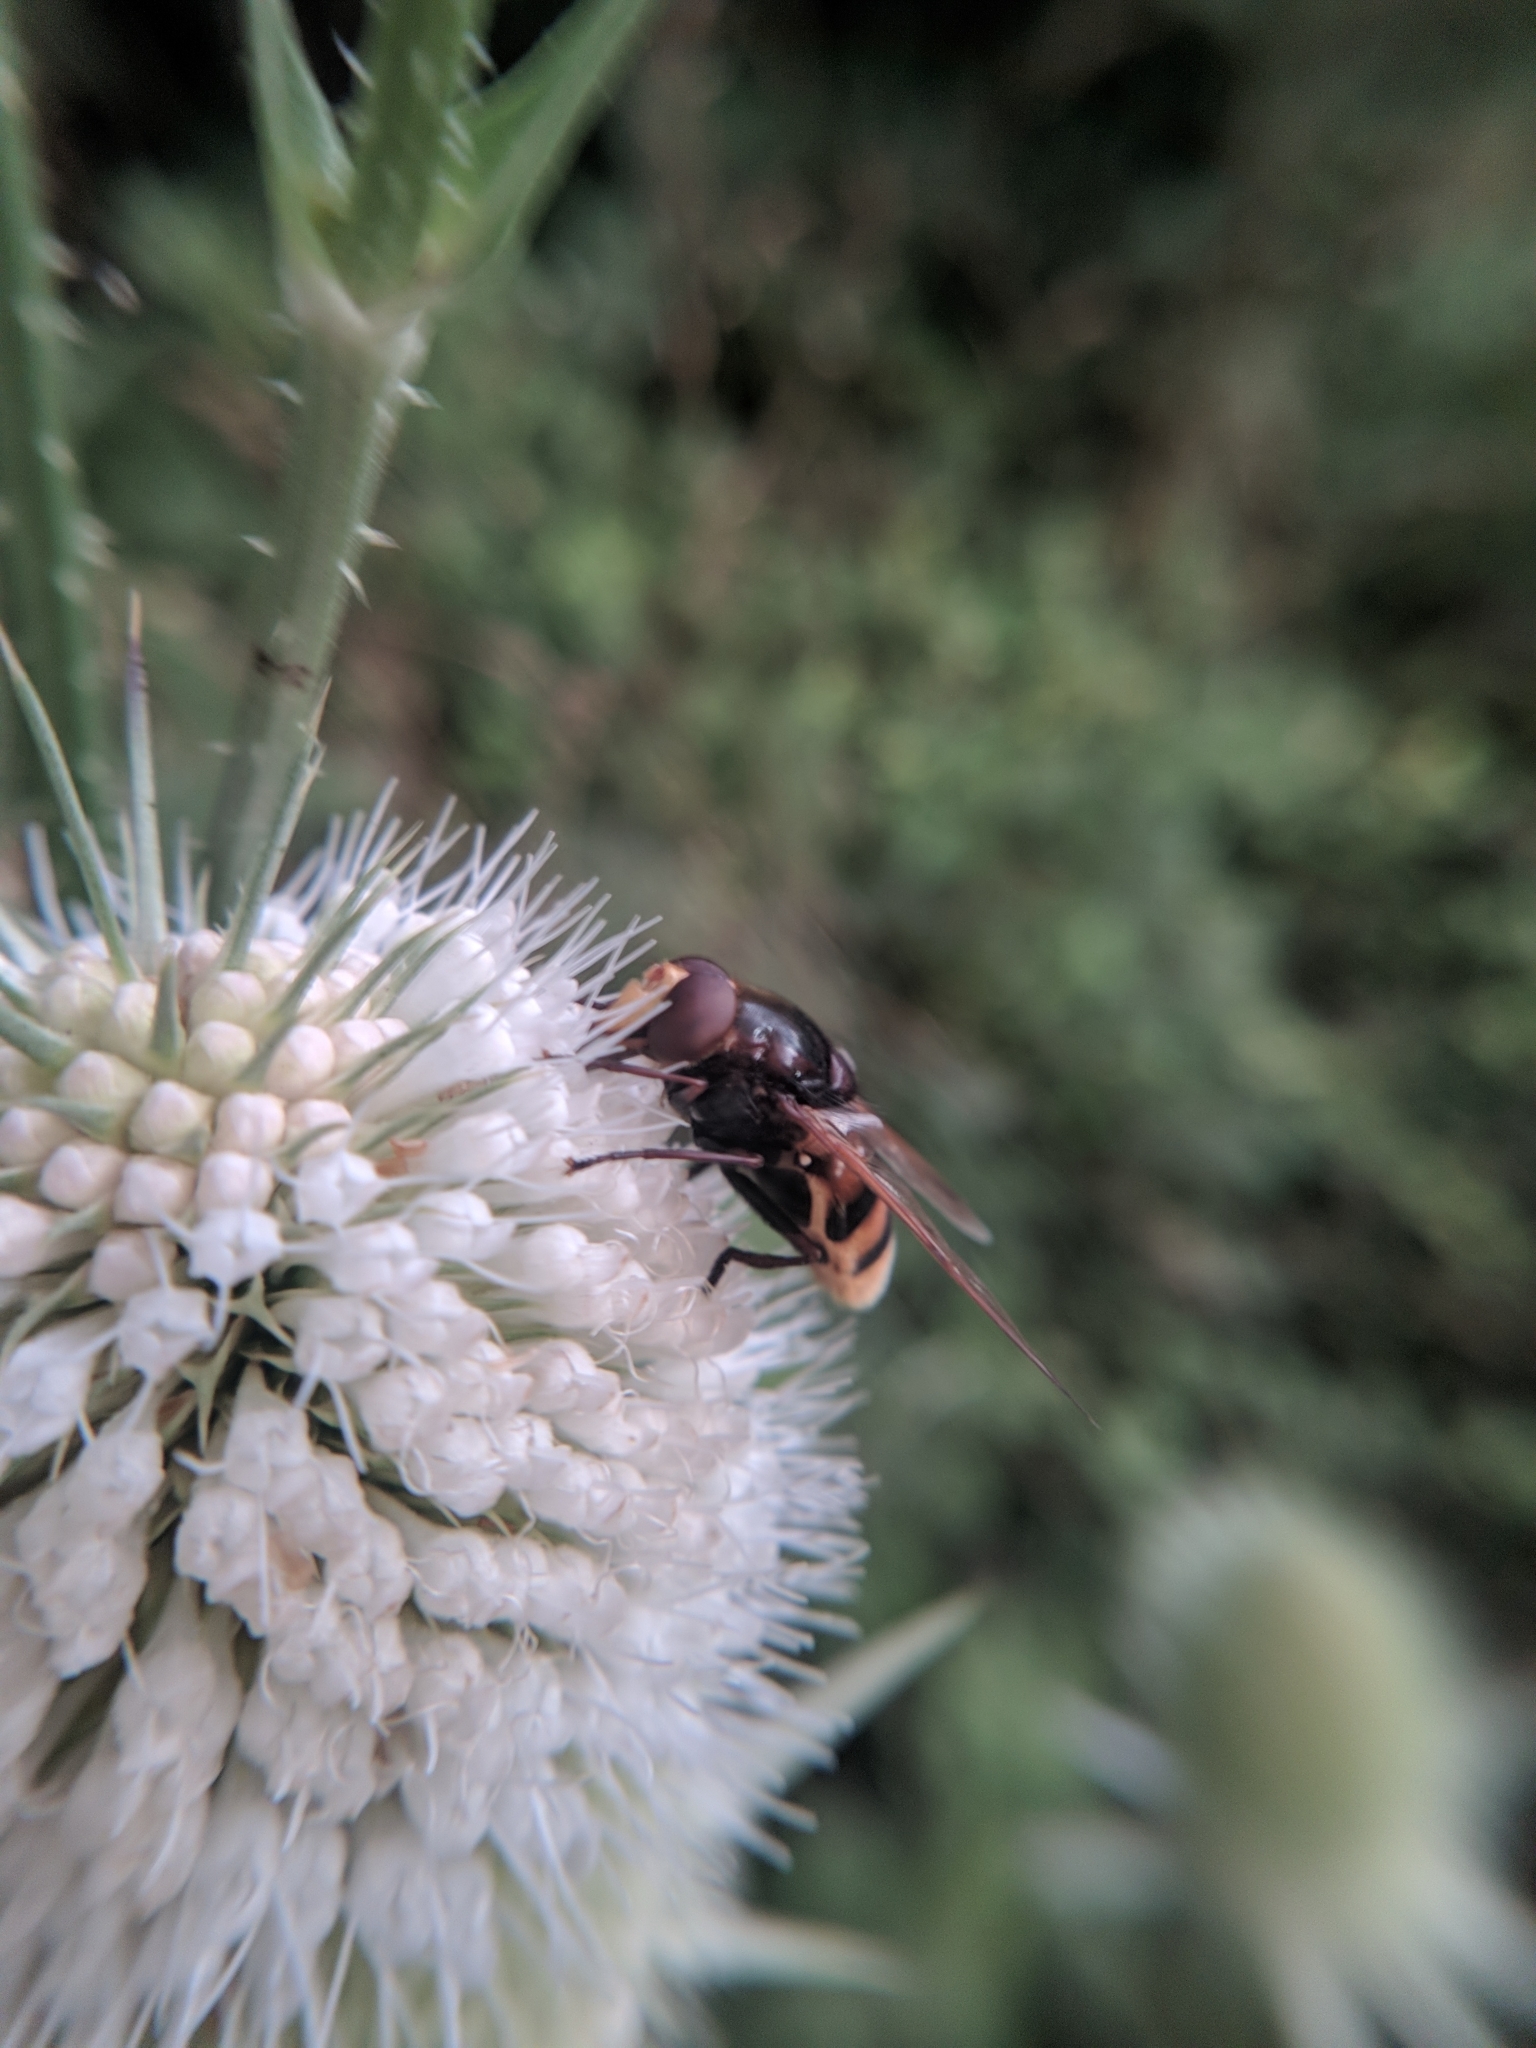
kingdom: Animalia
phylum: Arthropoda
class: Insecta
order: Diptera
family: Syrphidae
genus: Volucella
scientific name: Volucella zonaria
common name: Hornet hoverfly
